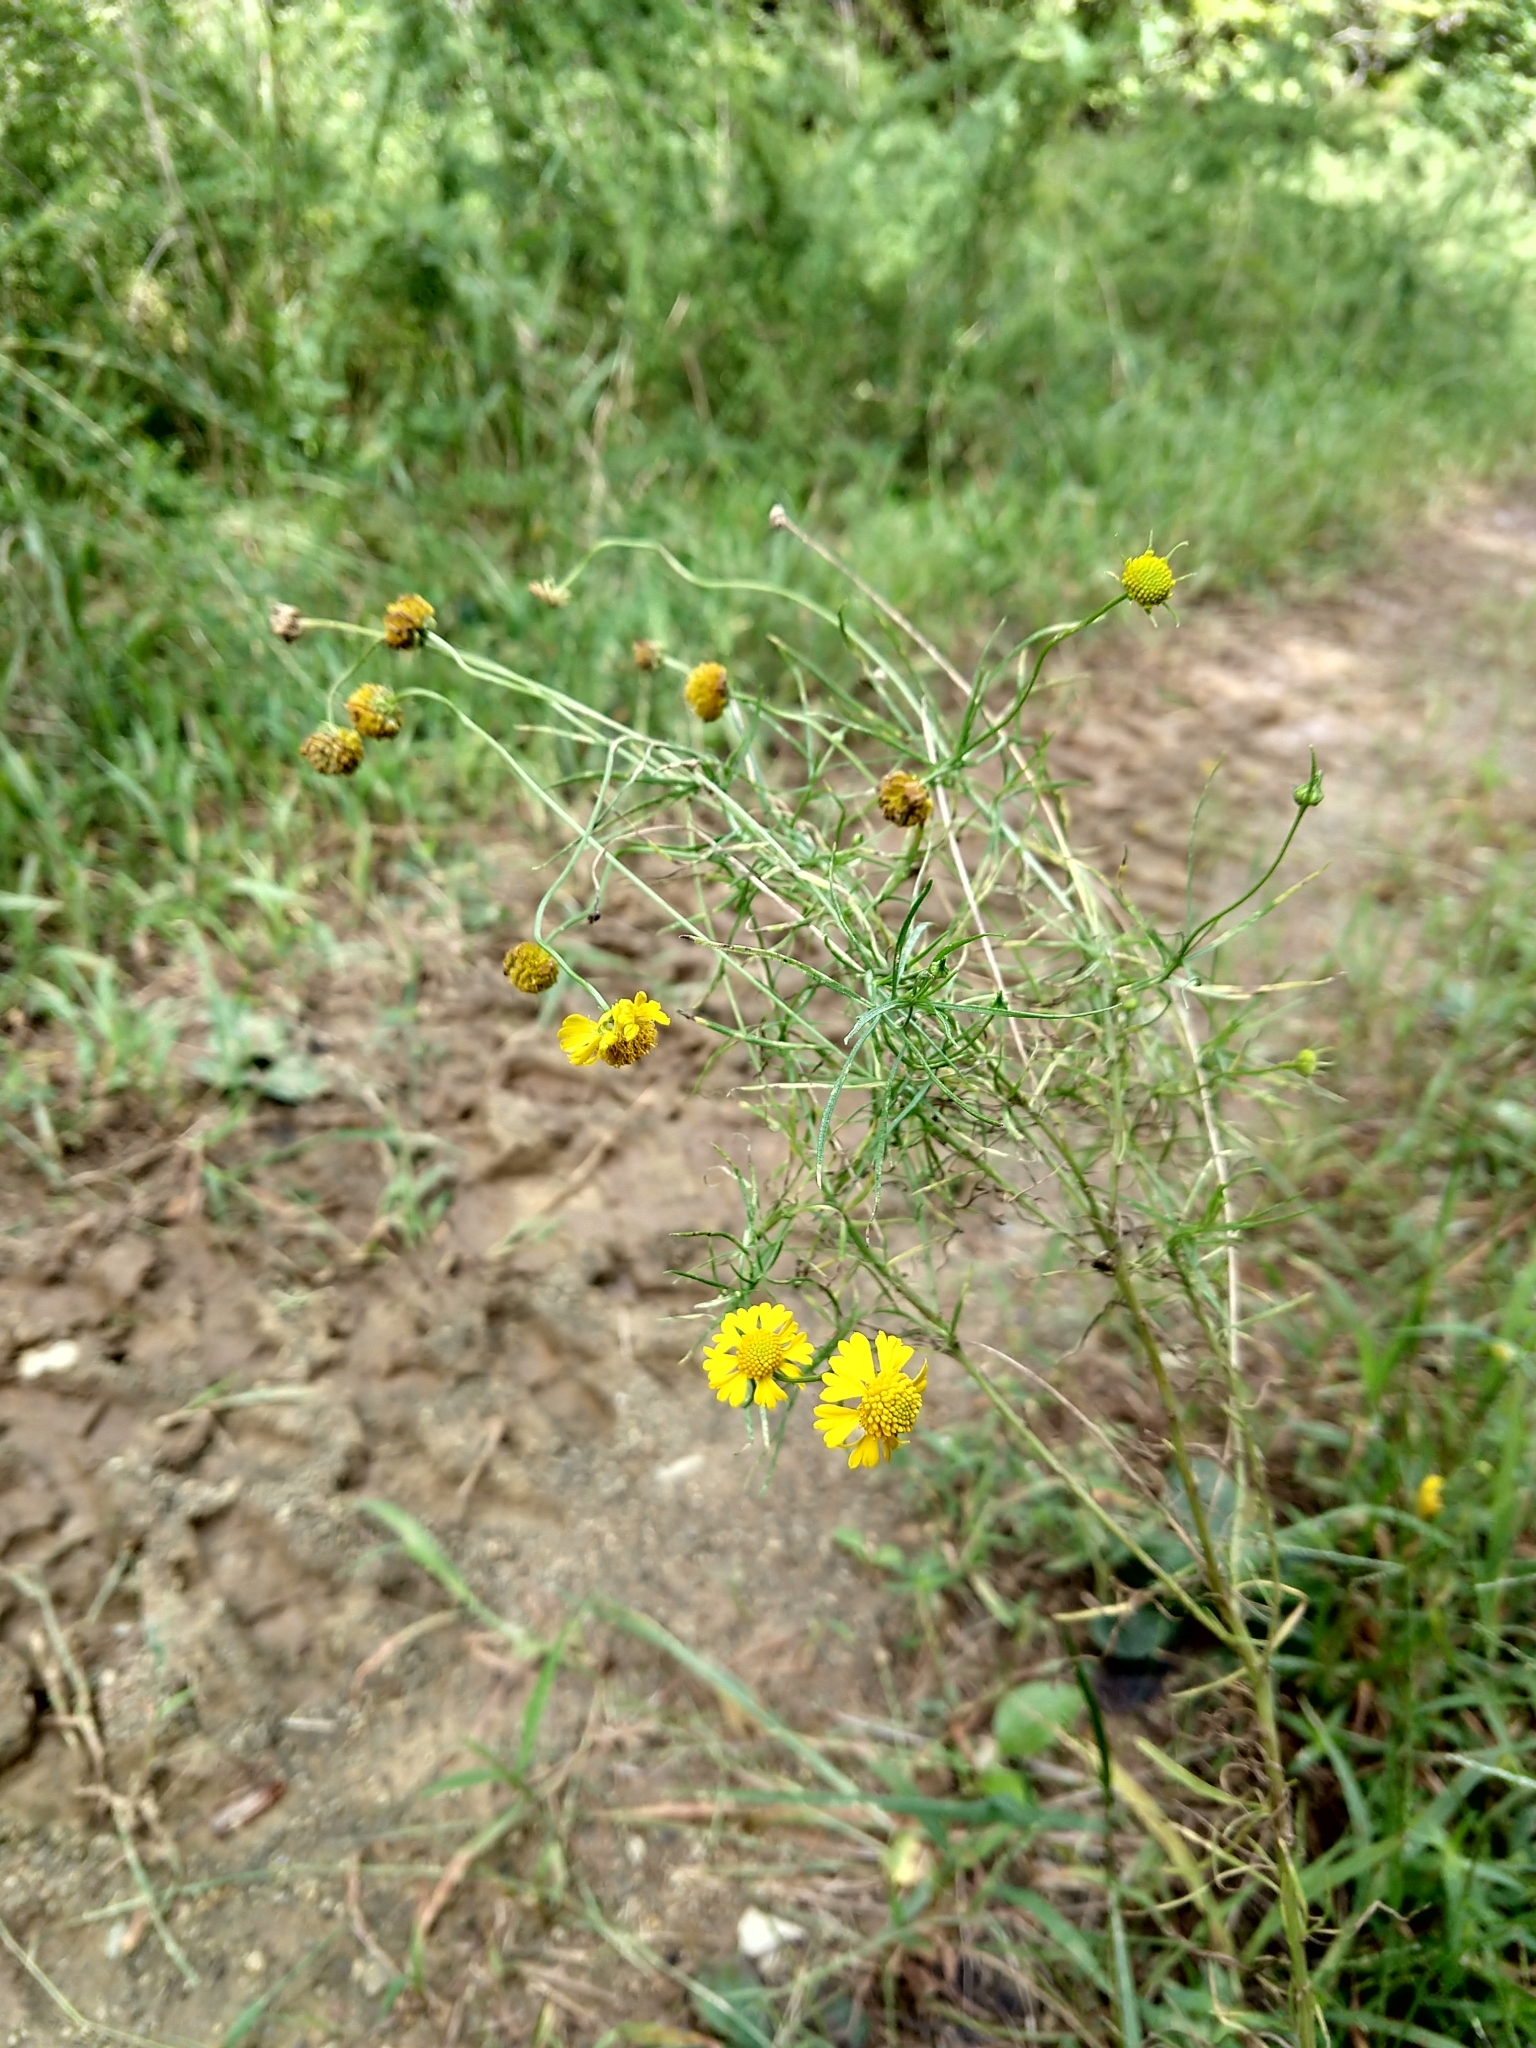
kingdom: Plantae
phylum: Tracheophyta
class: Magnoliopsida
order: Asterales
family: Asteraceae
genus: Helenium
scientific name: Helenium amarum
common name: Bitter sneezeweed
